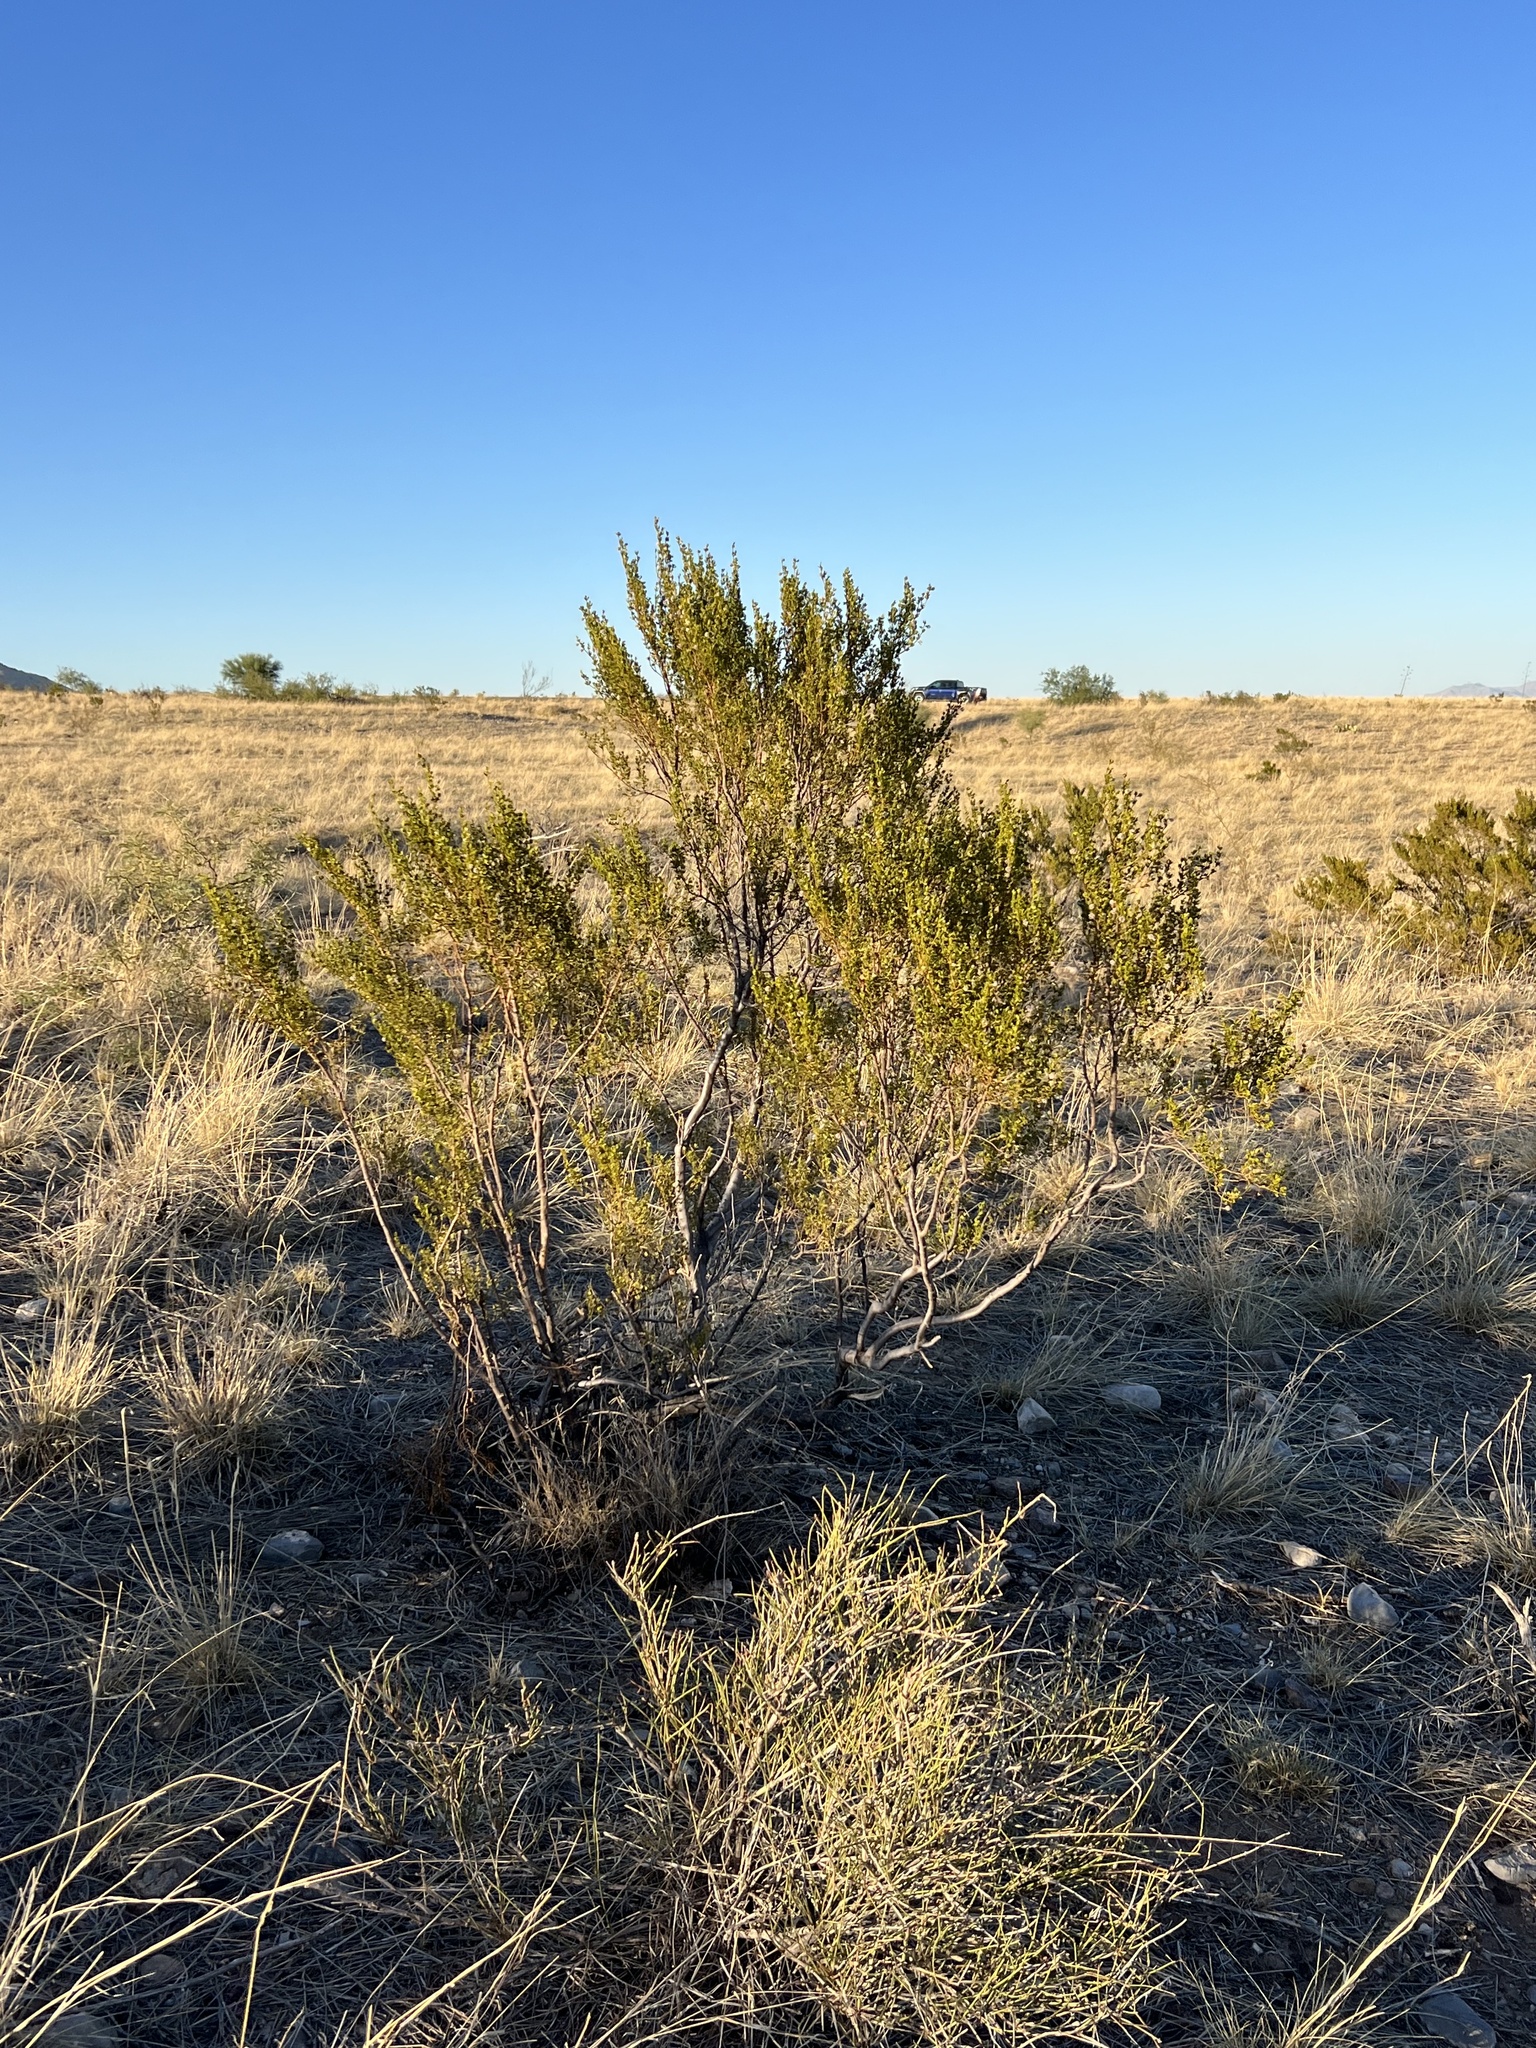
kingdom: Plantae
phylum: Tracheophyta
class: Magnoliopsida
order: Zygophyllales
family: Zygophyllaceae
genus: Larrea
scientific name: Larrea tridentata
